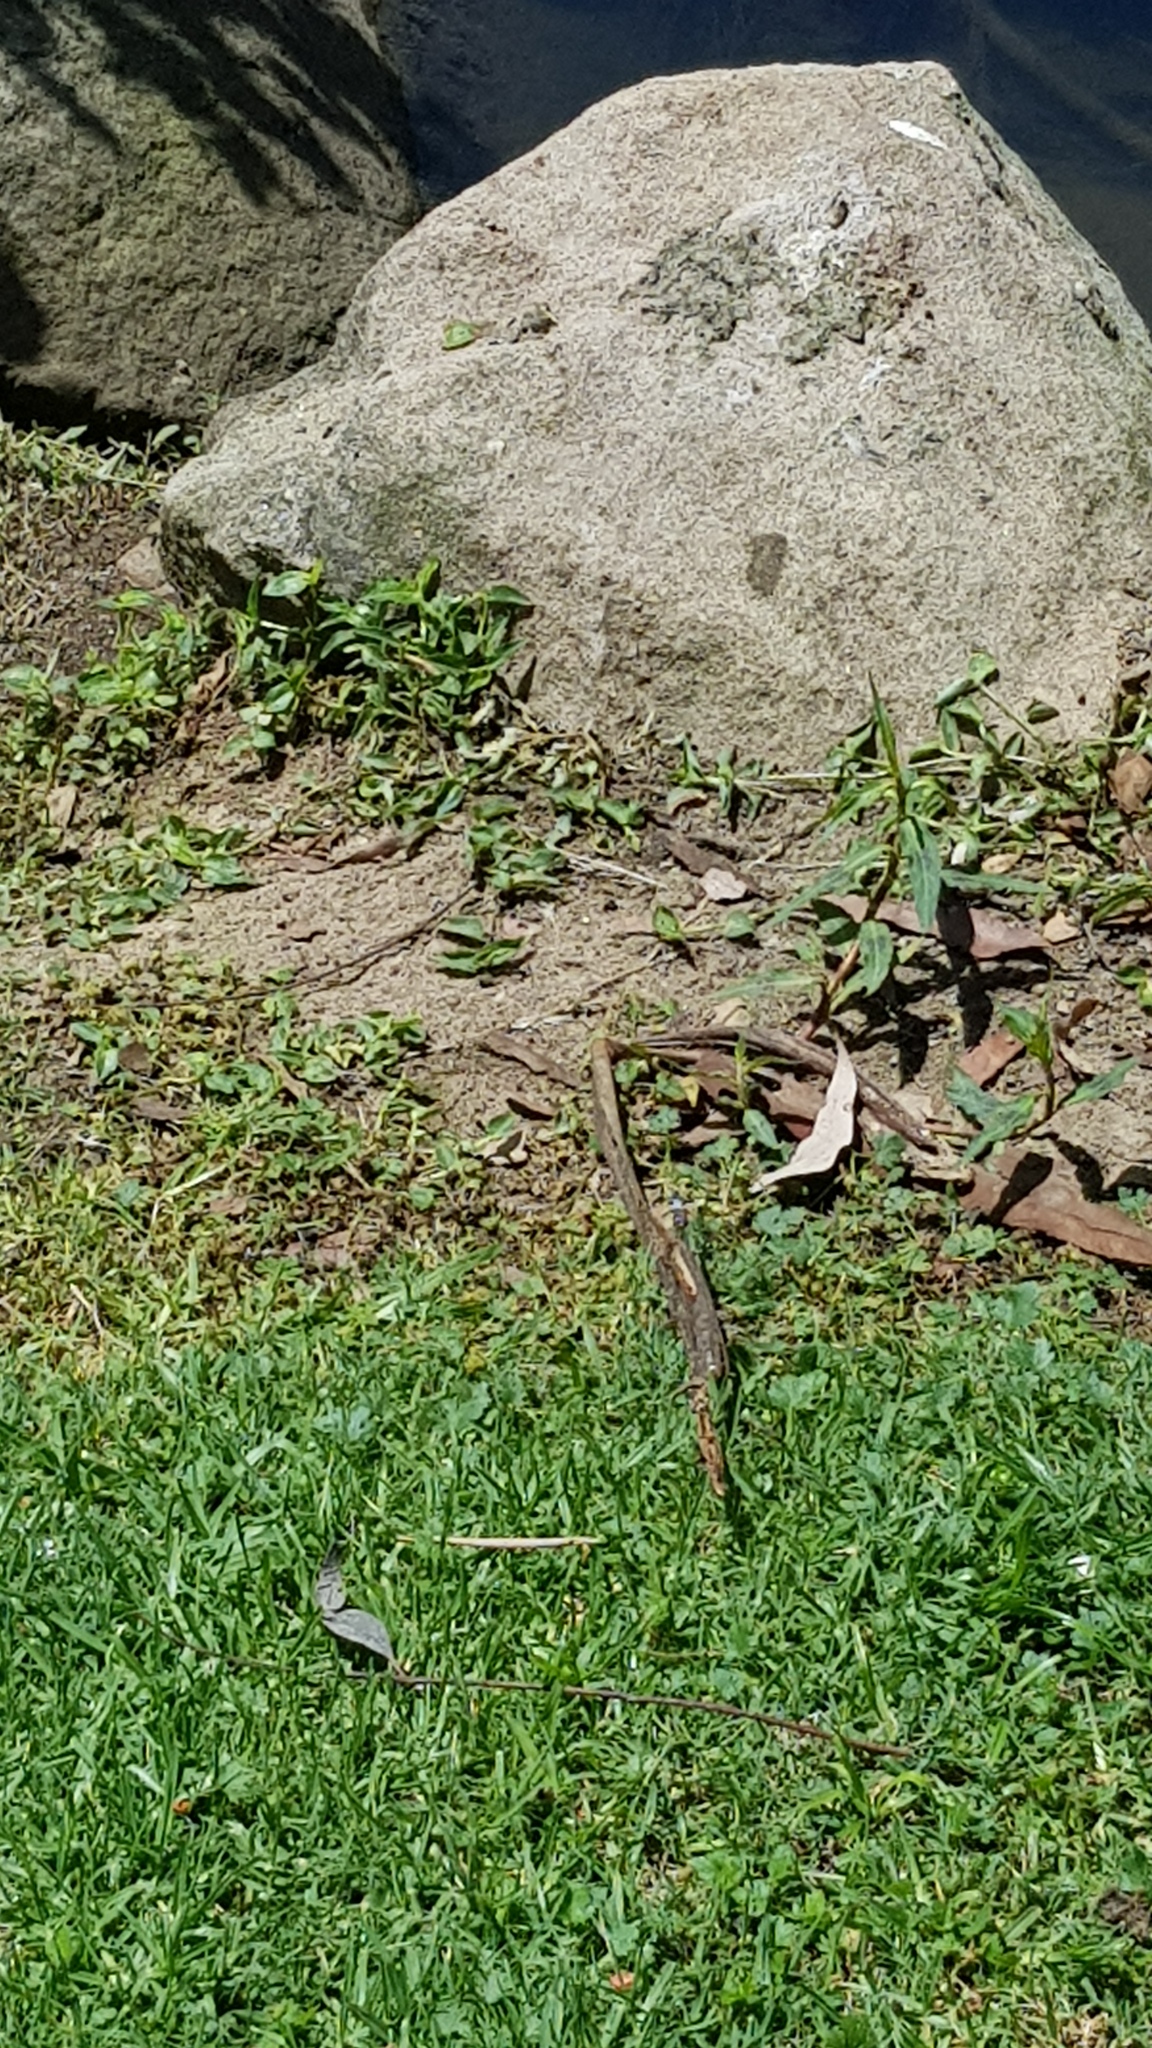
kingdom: Animalia
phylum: Arthropoda
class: Insecta
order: Odonata
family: Libellulidae
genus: Orthetrum
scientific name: Orthetrum caledonicum
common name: Blue skimmer
